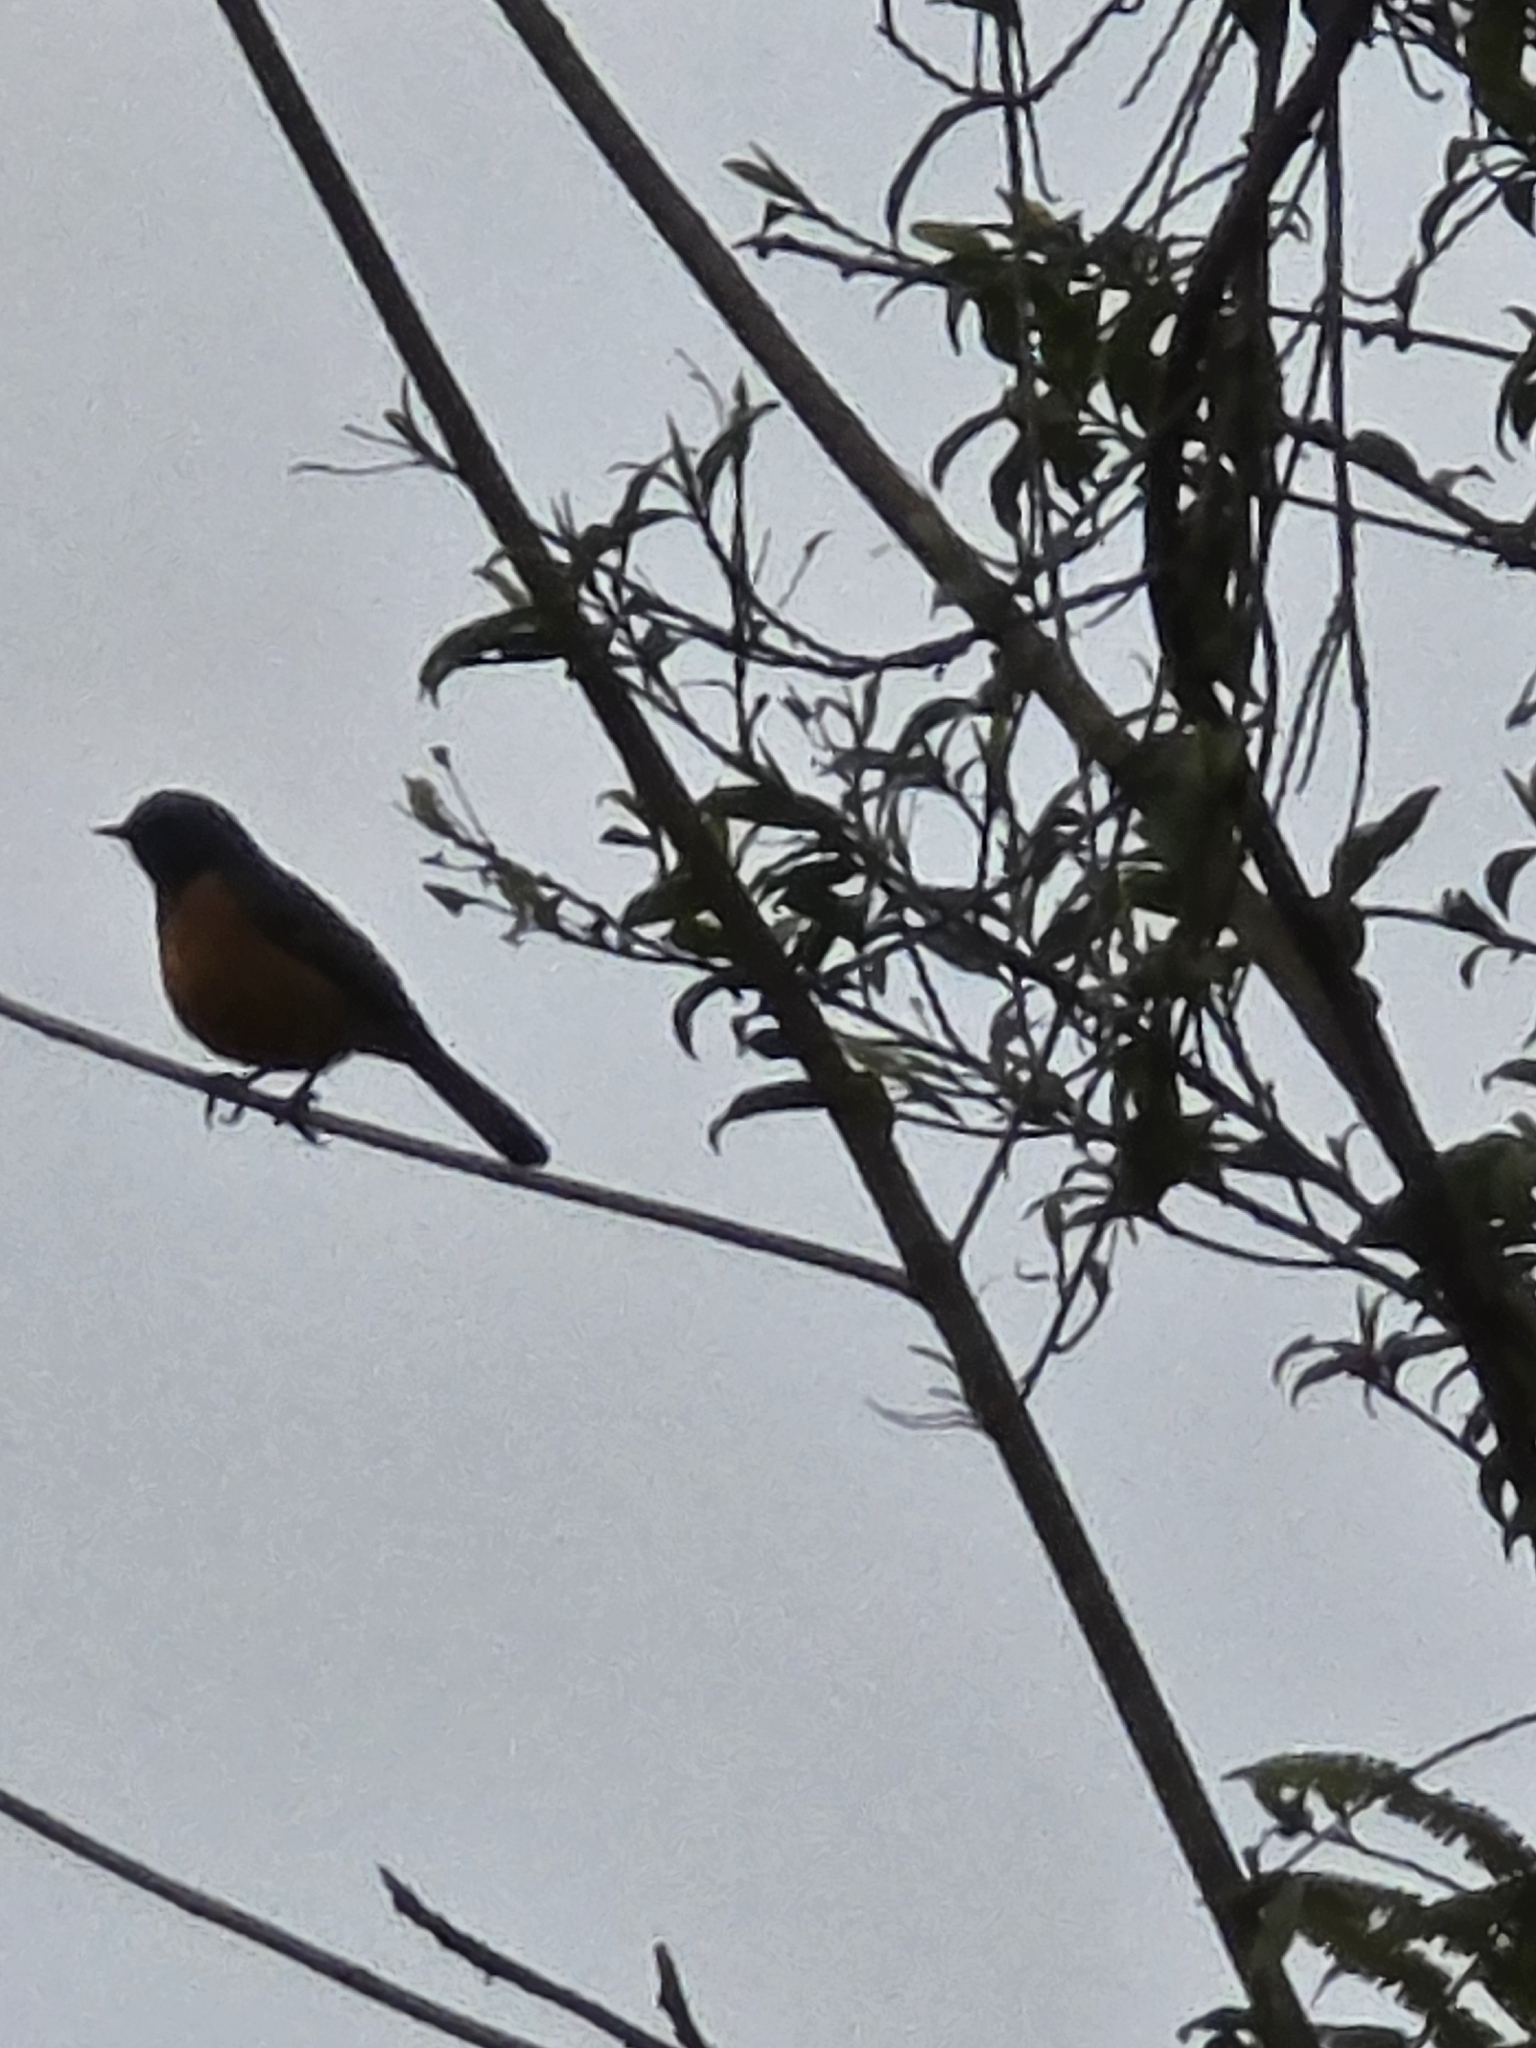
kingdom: Animalia
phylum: Chordata
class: Aves
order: Passeriformes
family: Muscicapidae
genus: Phoenicurus
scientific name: Phoenicurus frontalis
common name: Blue-fronted redstart
